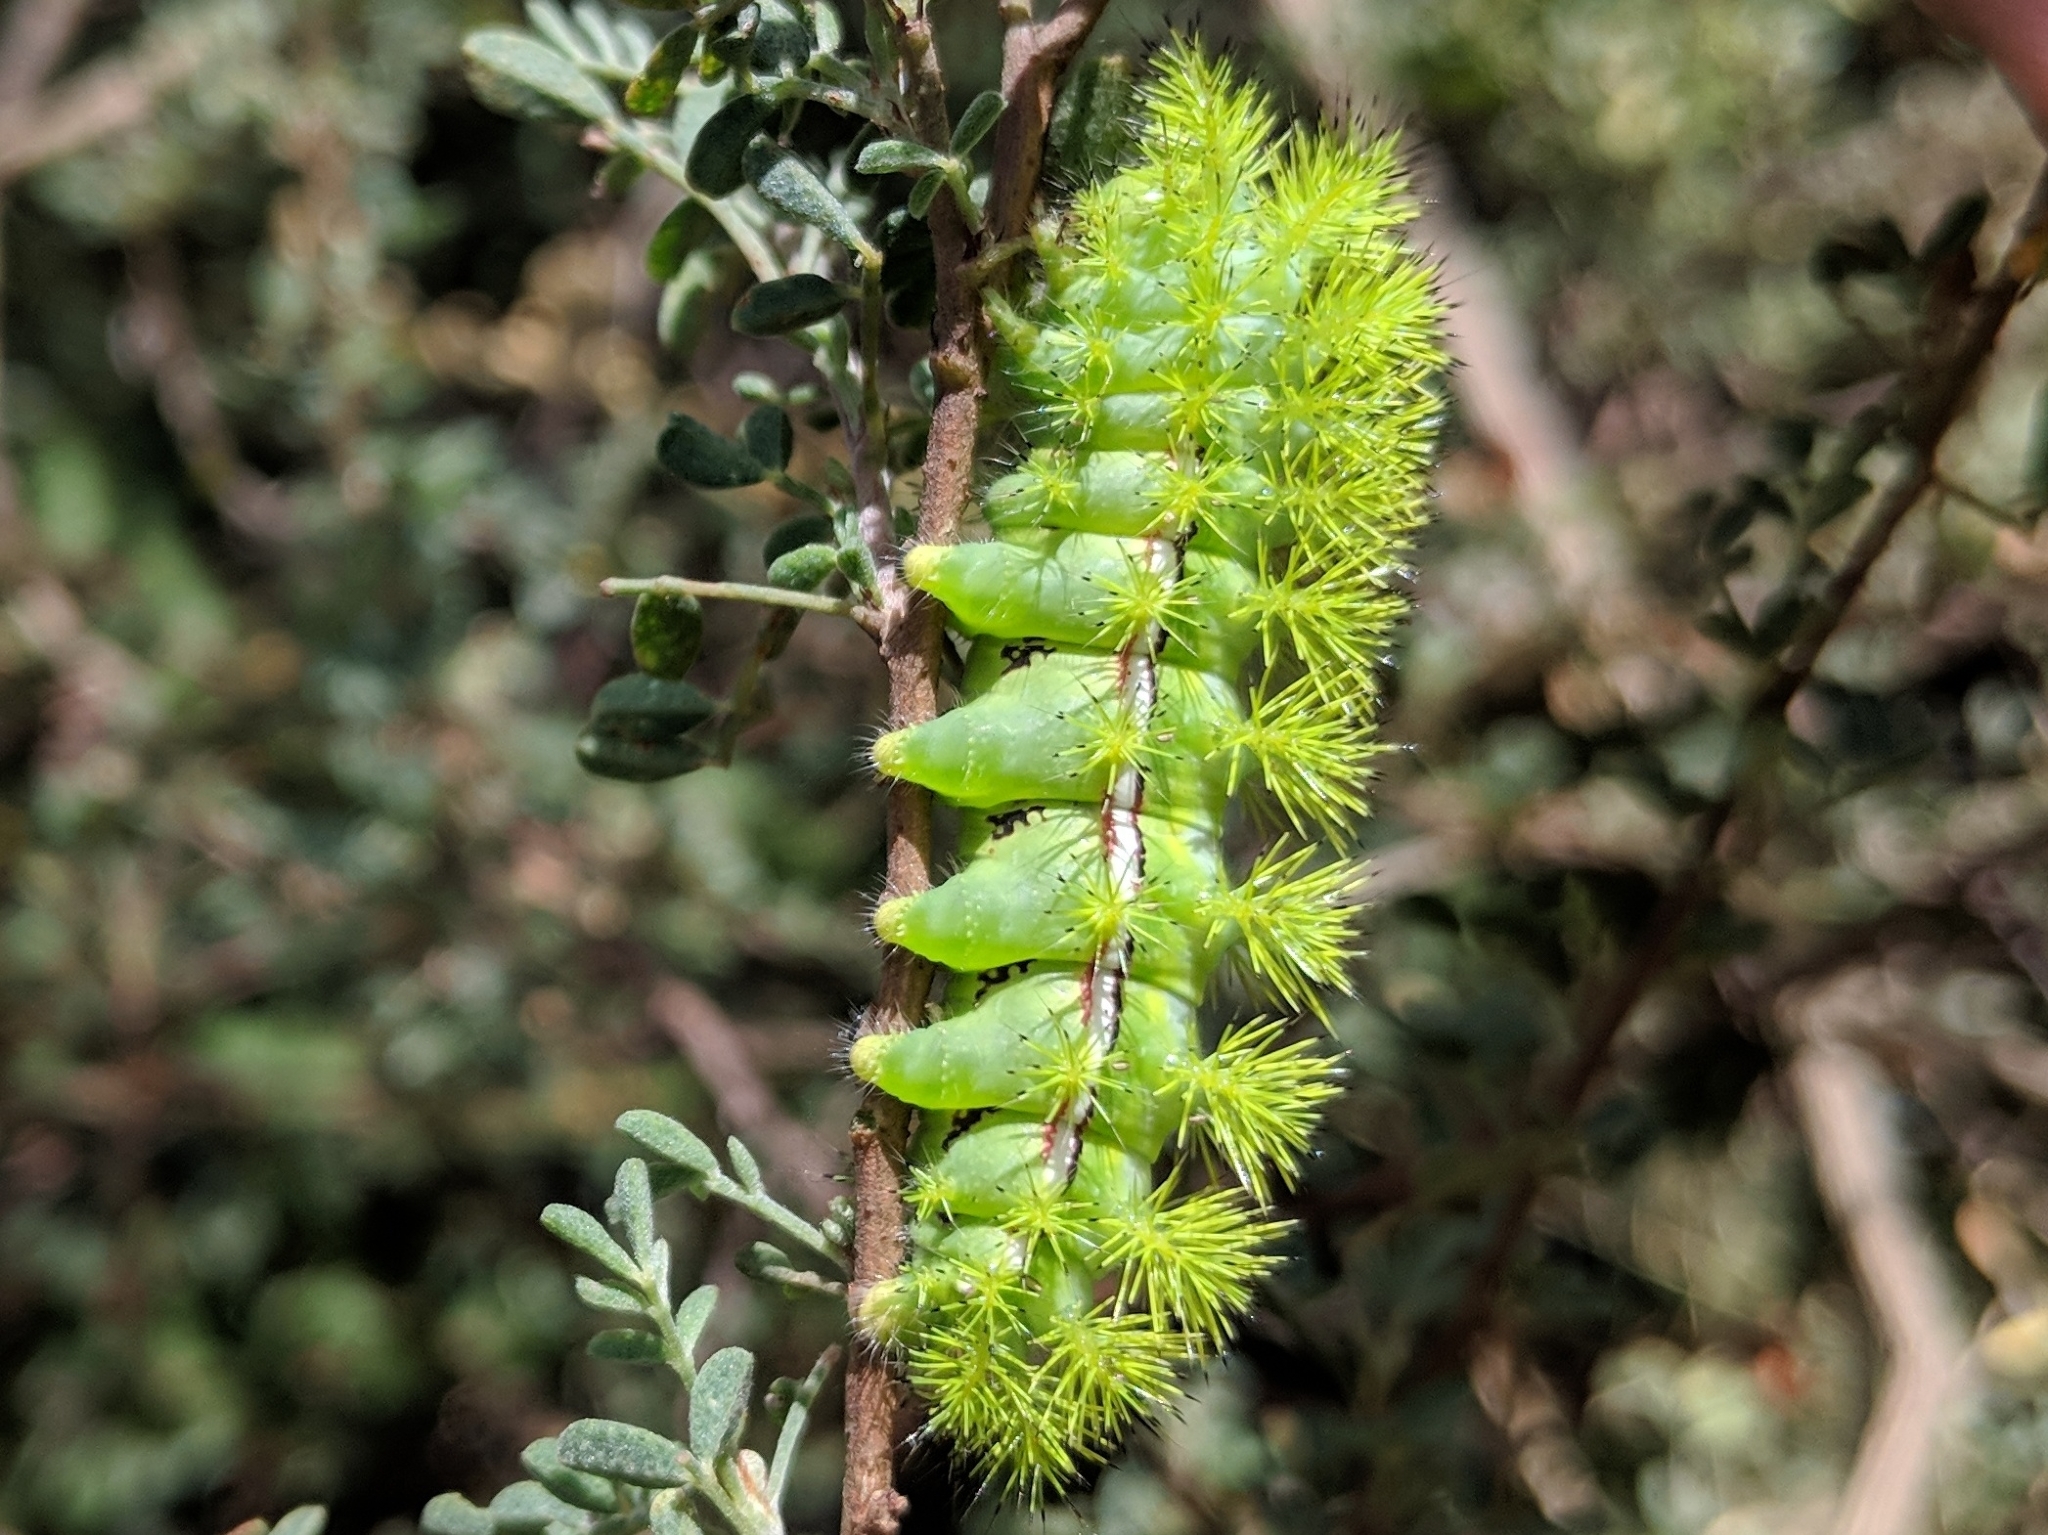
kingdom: Animalia
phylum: Arthropoda
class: Insecta
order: Lepidoptera
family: Saturniidae
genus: Automeris
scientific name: Automeris io
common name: Io moth
